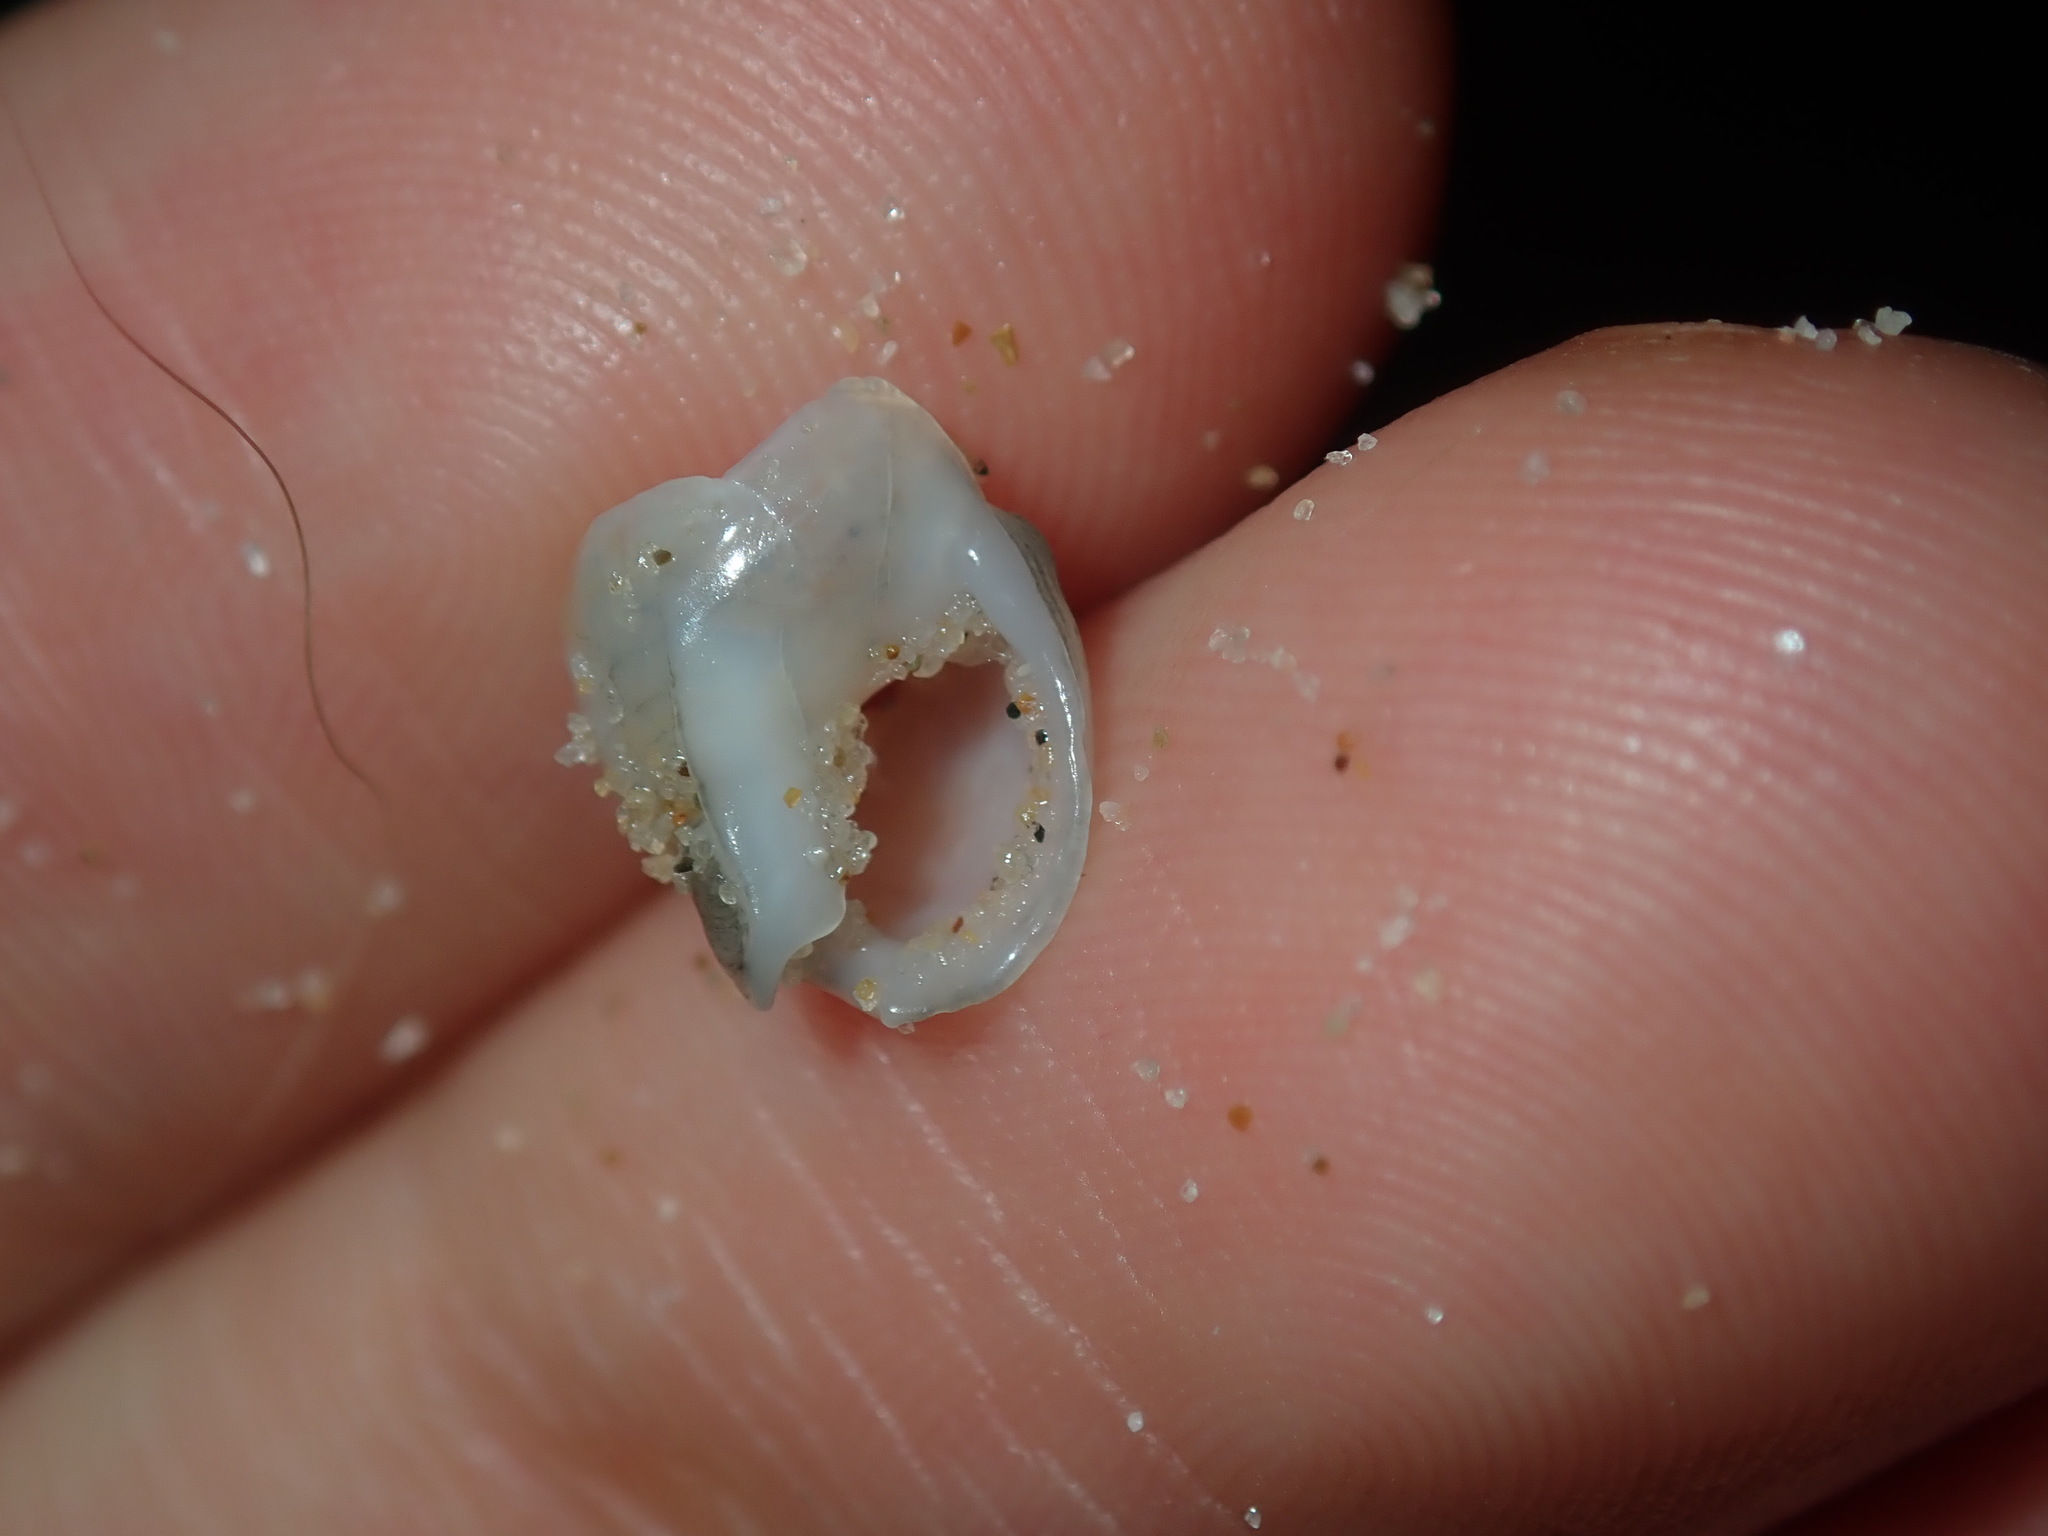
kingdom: Animalia
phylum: Mollusca
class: Gastropoda
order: Neogastropoda
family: Nassariidae
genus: Nassarius
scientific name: Nassarius nigellus
